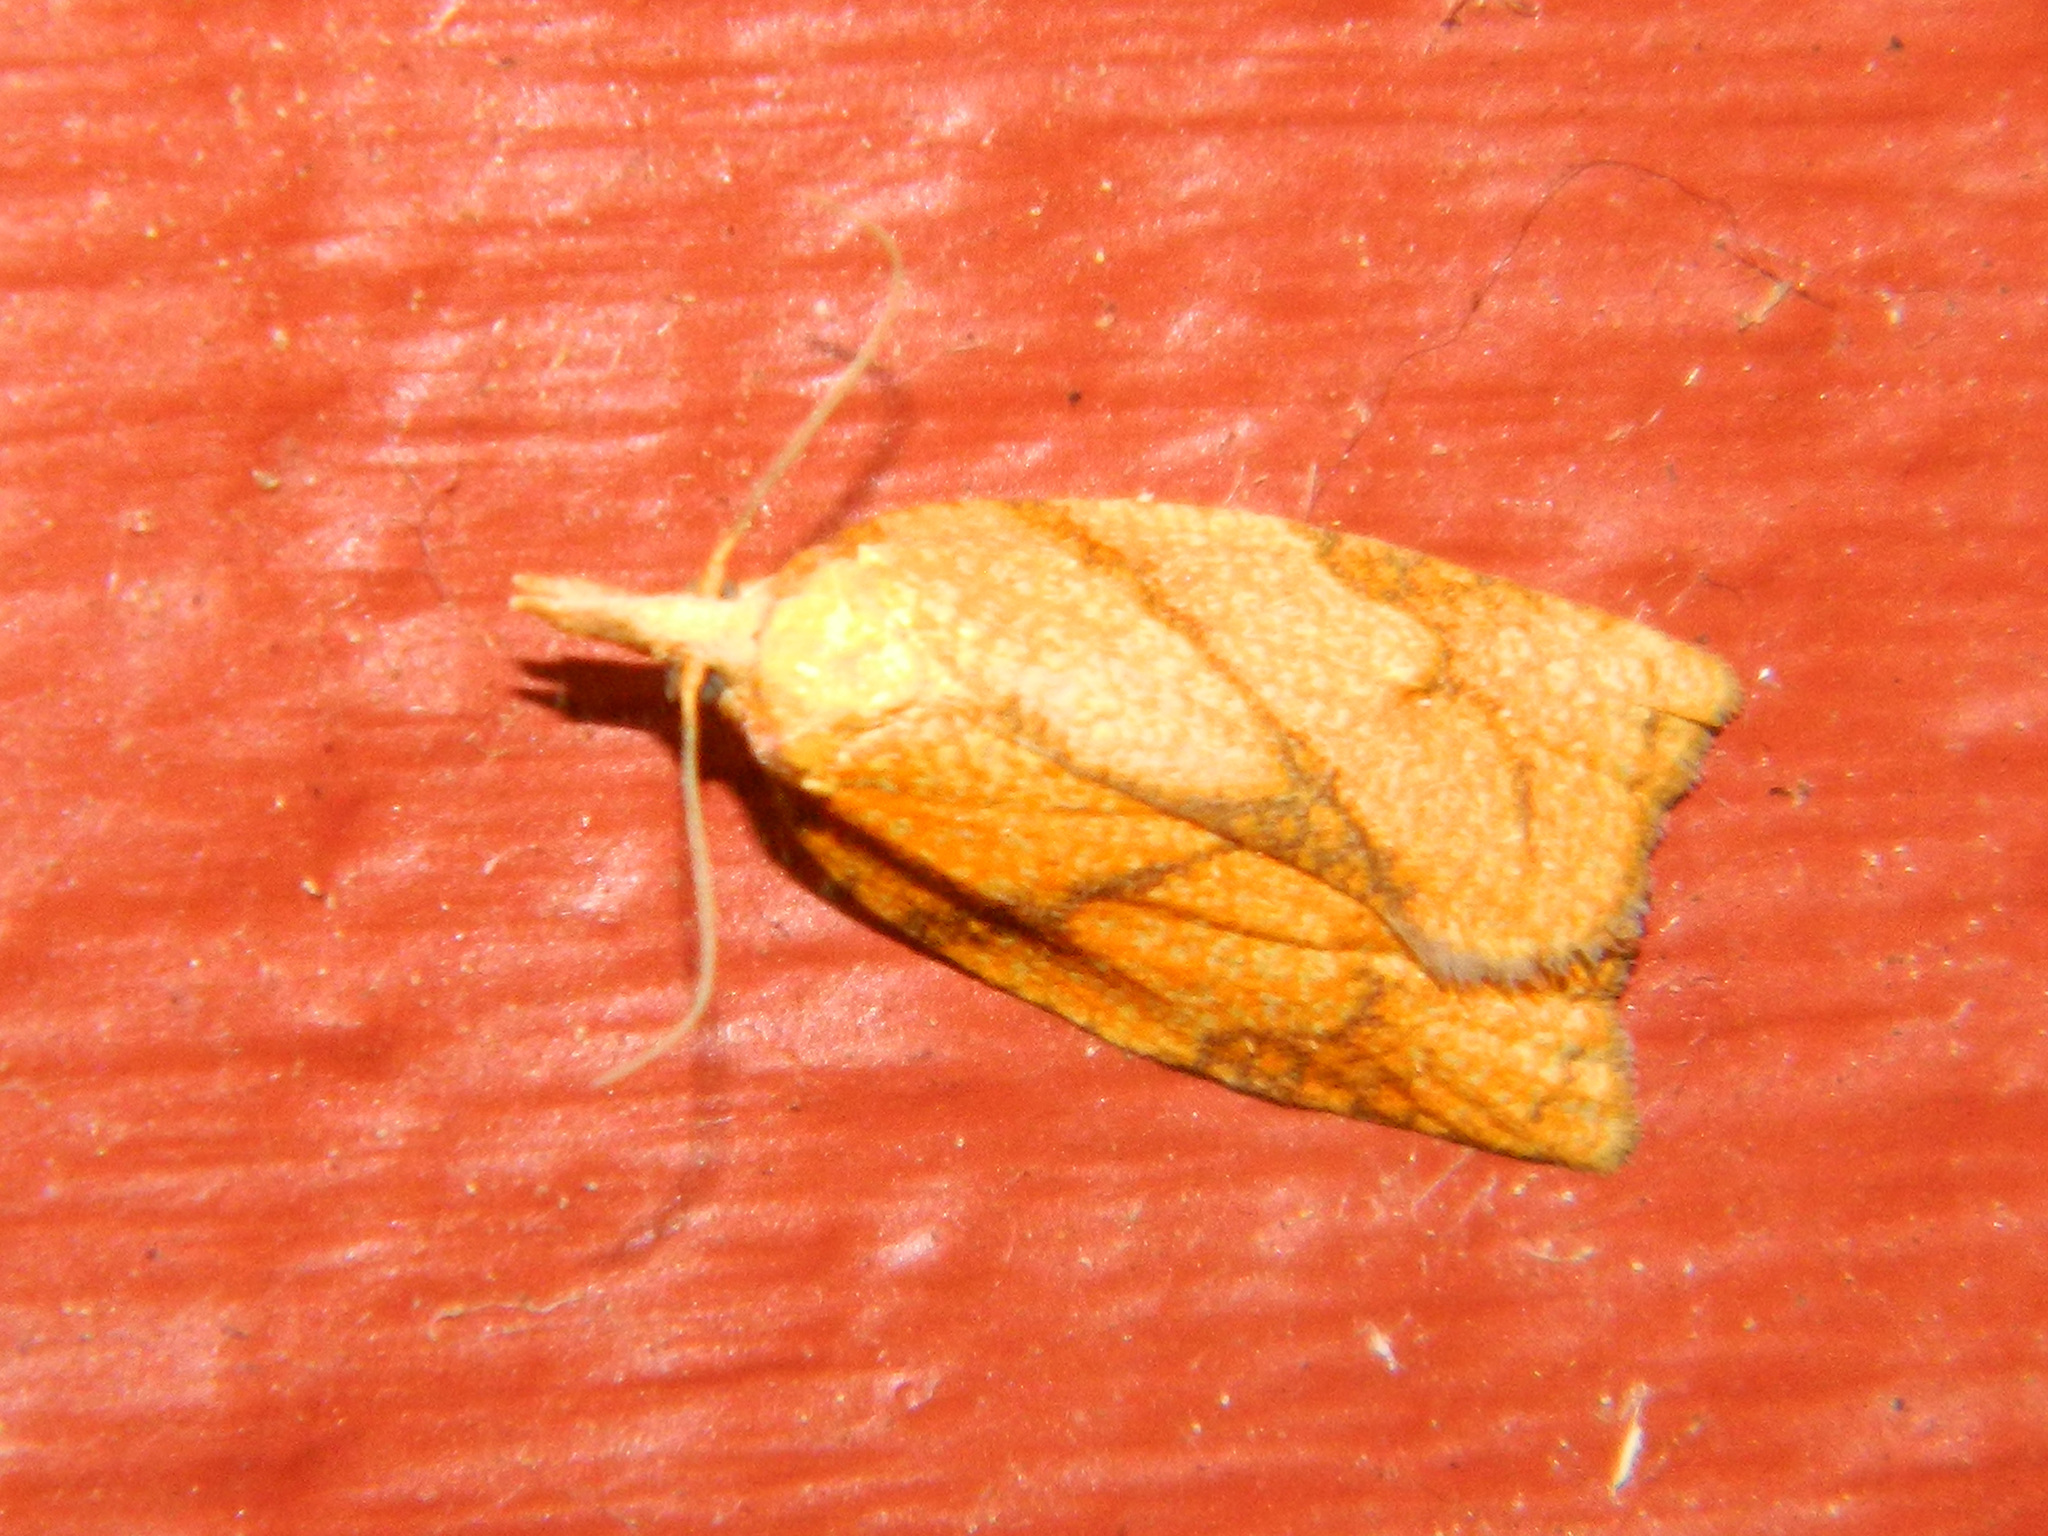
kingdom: Animalia
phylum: Arthropoda
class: Insecta
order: Lepidoptera
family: Tortricidae
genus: Cenopis
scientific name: Cenopis reticulatana
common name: Reticulated fruitworm moth
